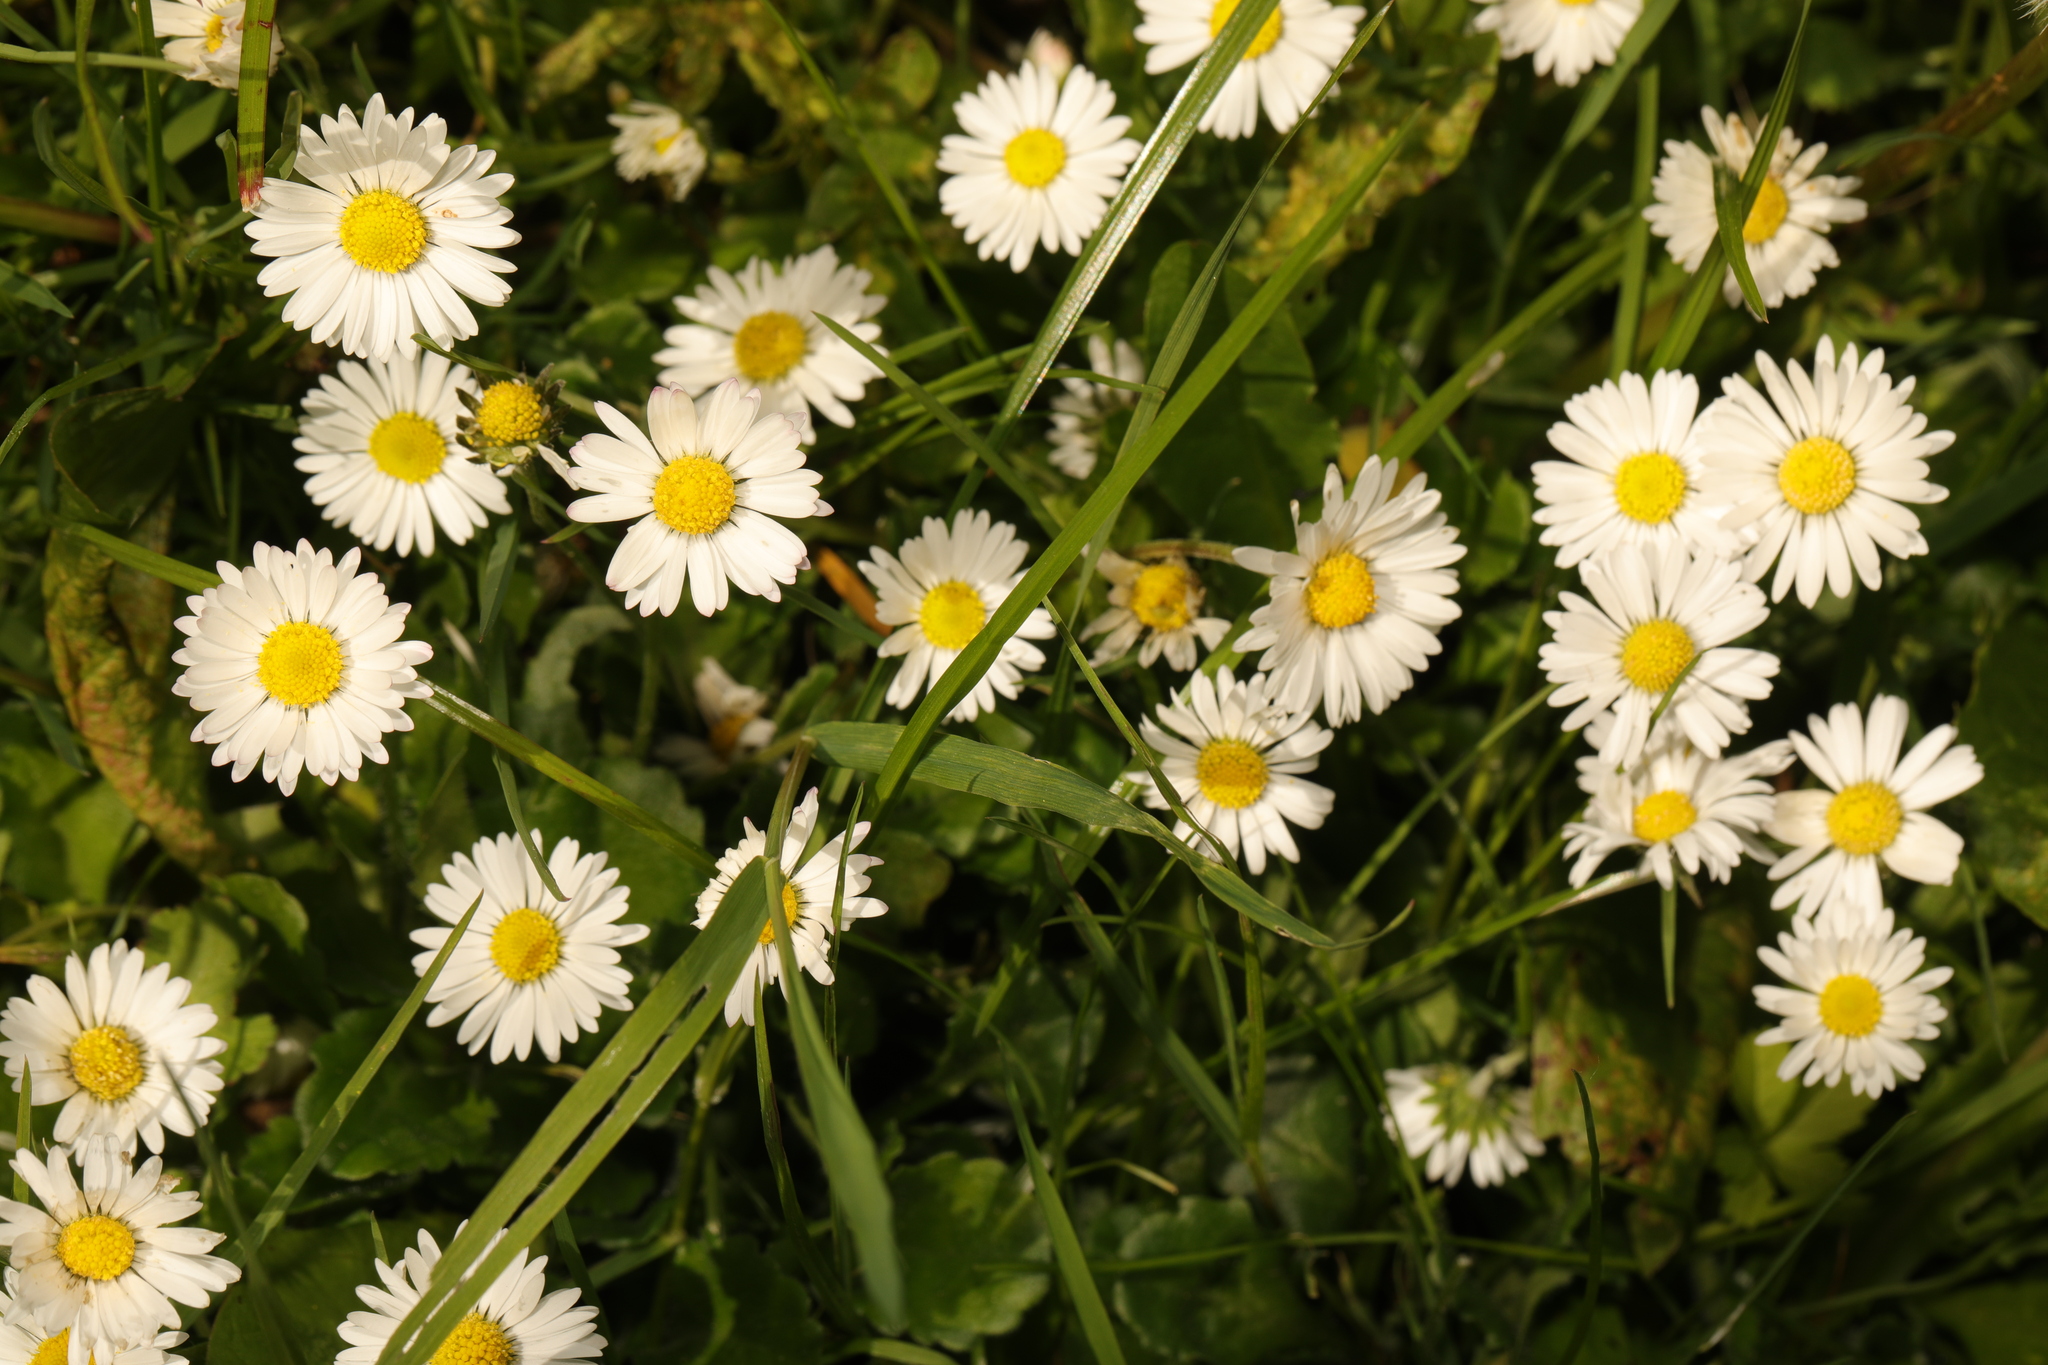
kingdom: Plantae
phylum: Tracheophyta
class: Magnoliopsida
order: Asterales
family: Asteraceae
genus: Bellis
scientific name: Bellis perennis
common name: Lawndaisy
